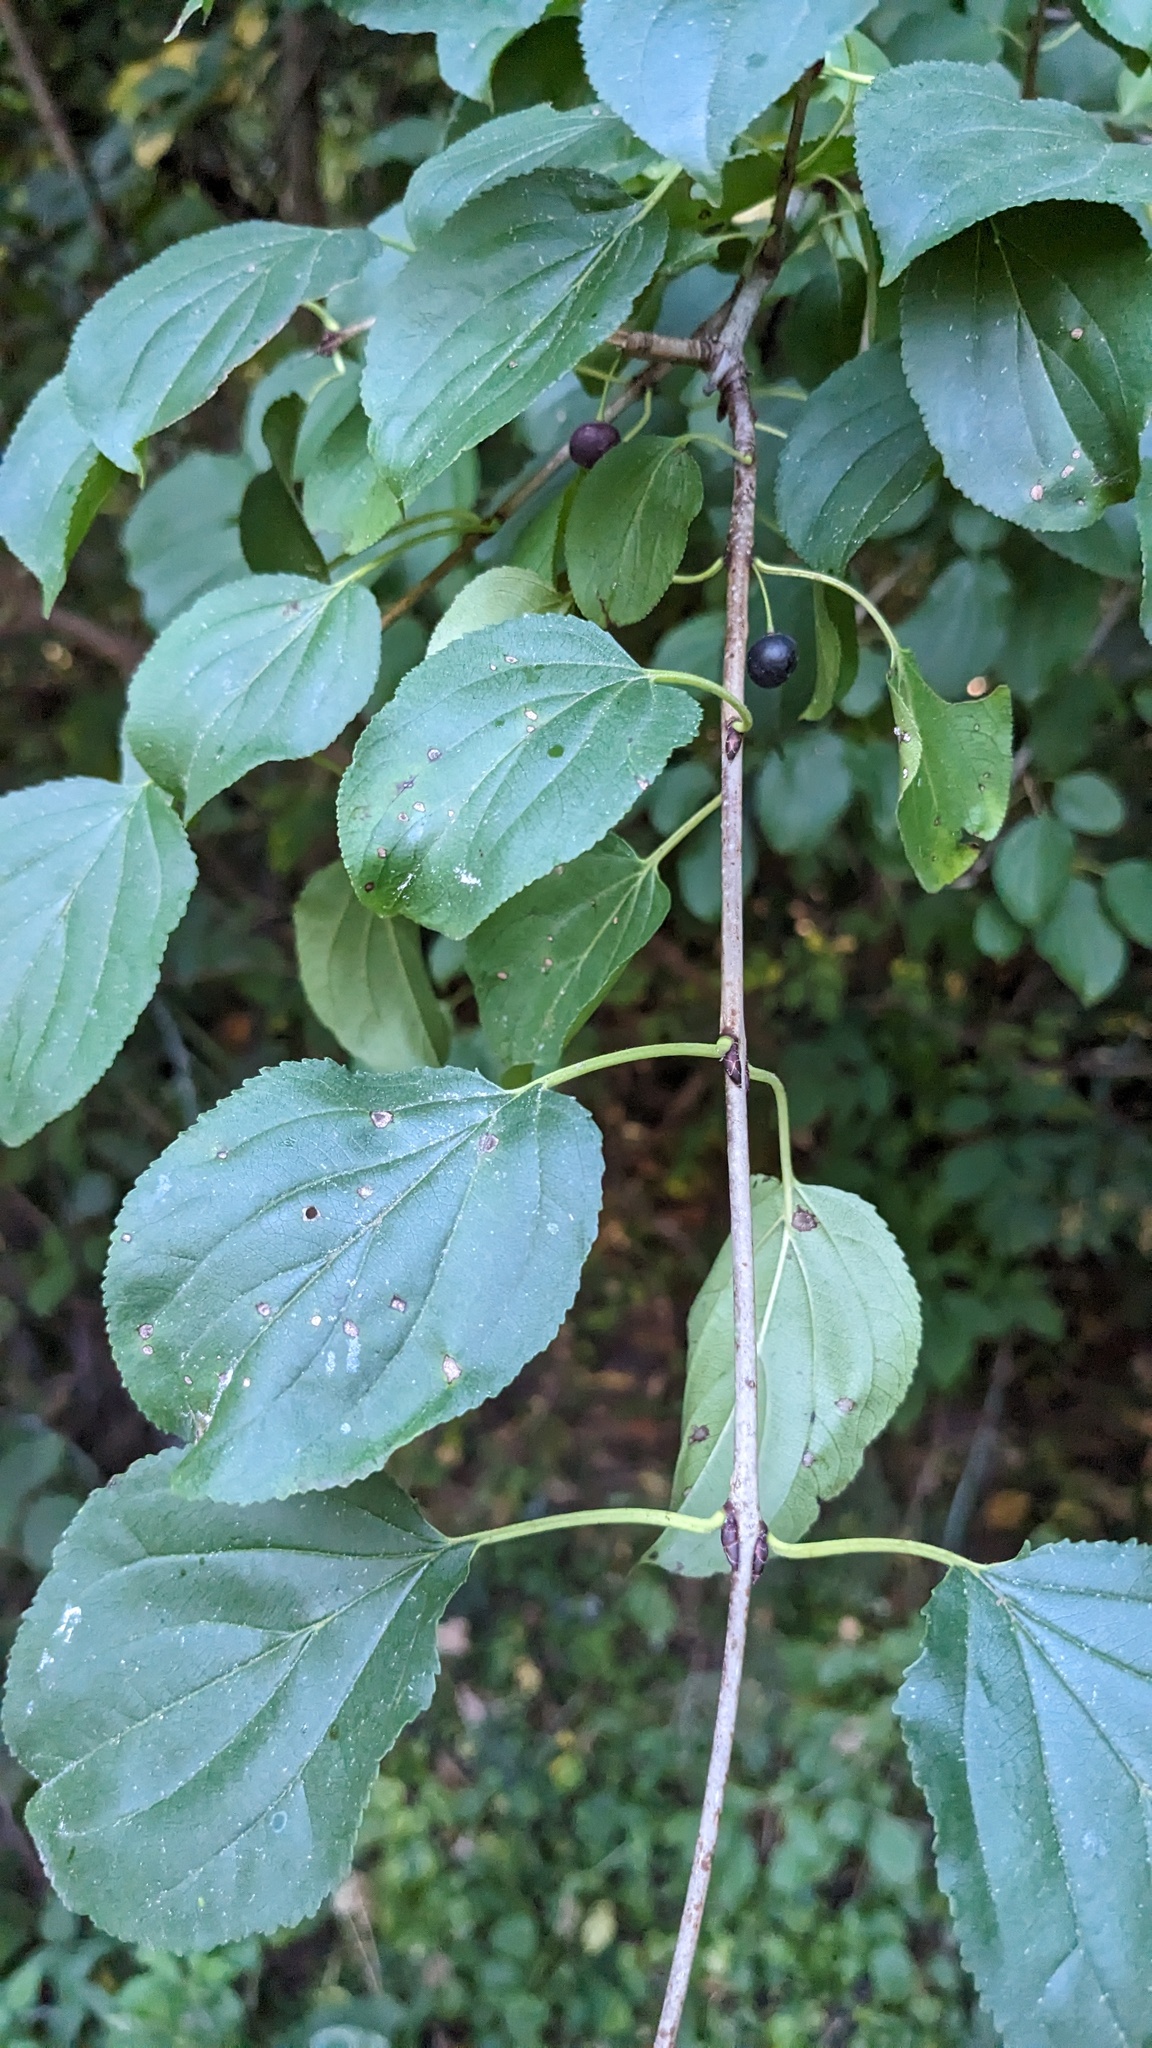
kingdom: Plantae
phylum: Tracheophyta
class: Magnoliopsida
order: Rosales
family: Rhamnaceae
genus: Rhamnus
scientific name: Rhamnus cathartica
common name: Common buckthorn
